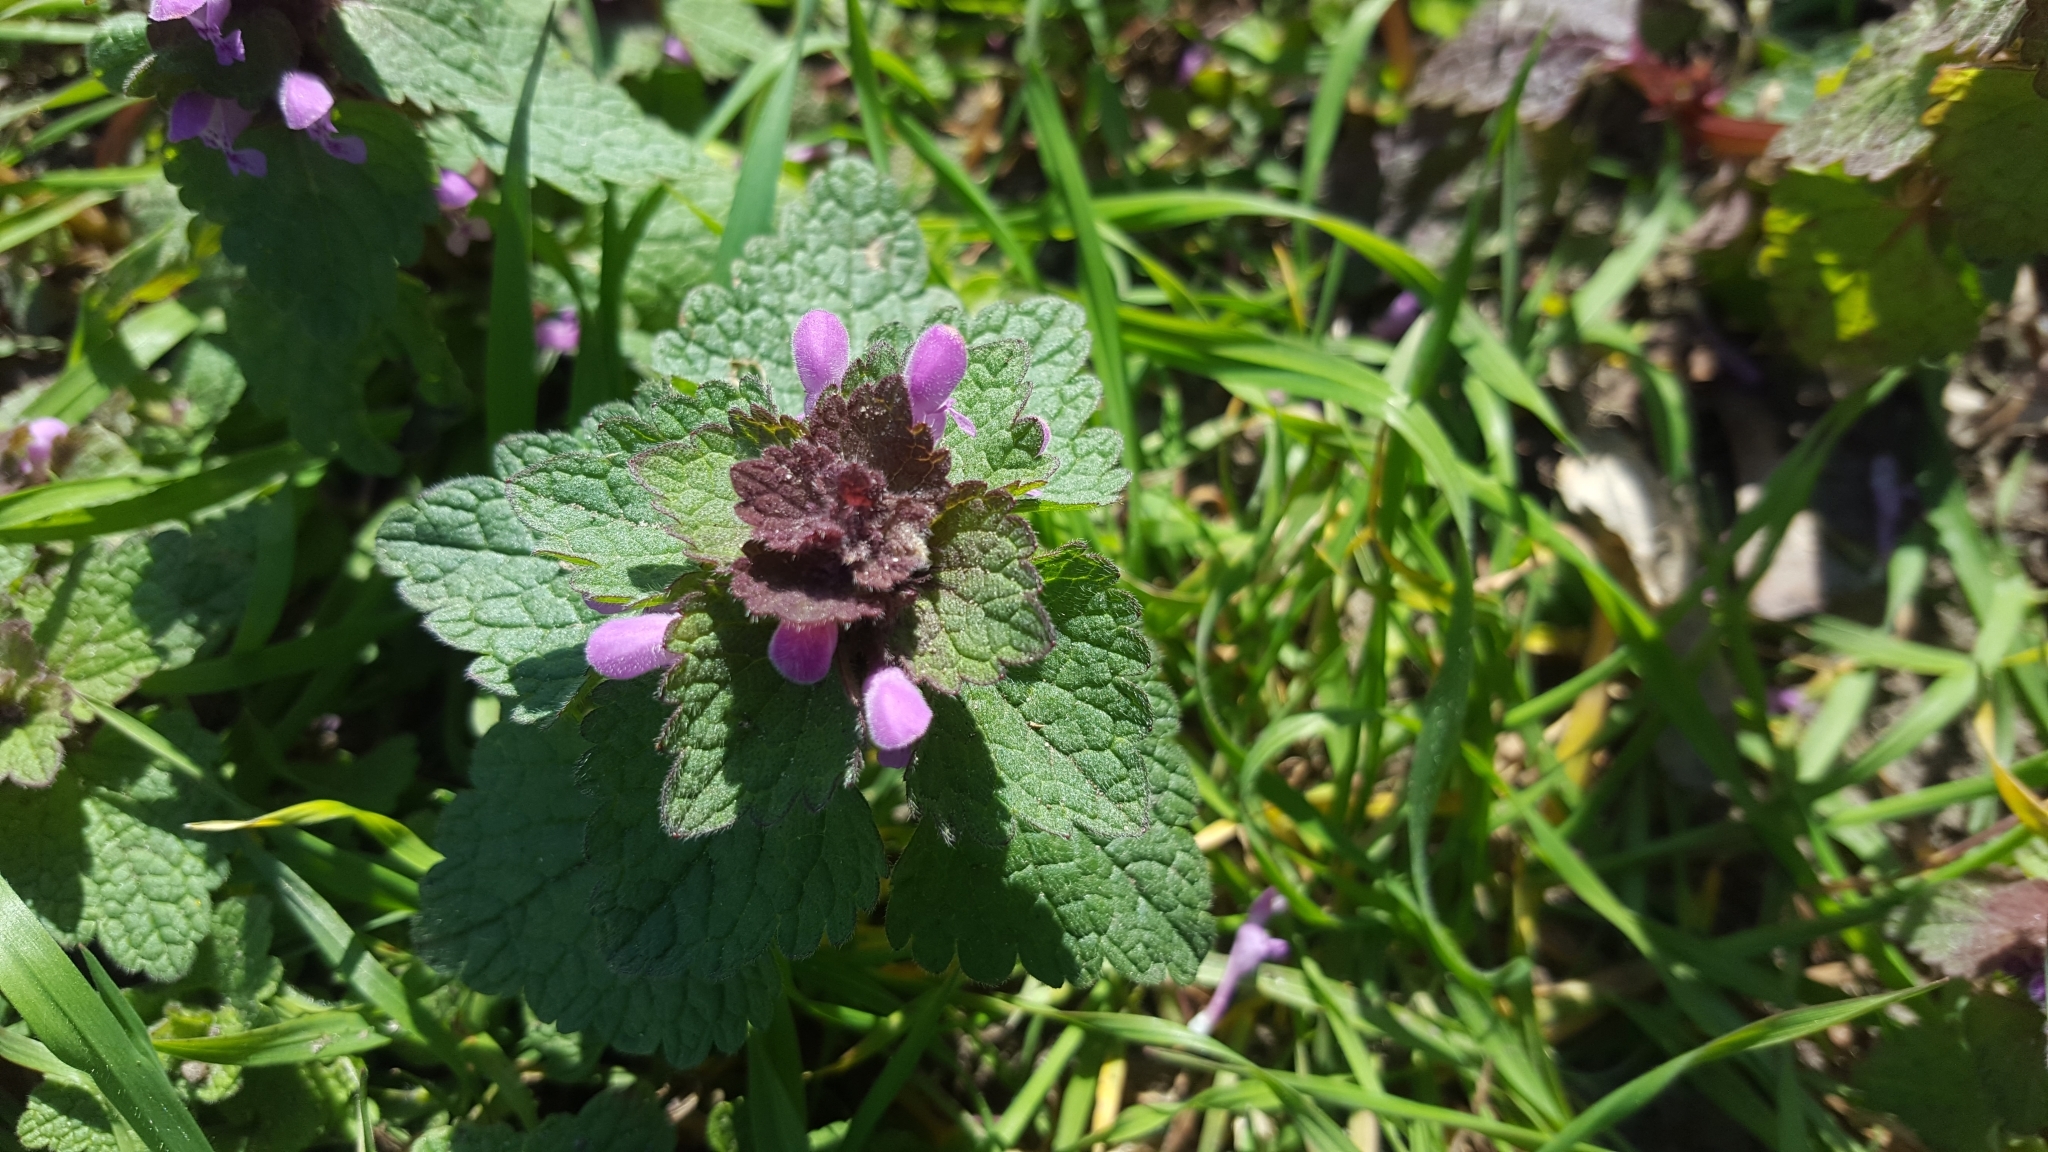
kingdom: Plantae
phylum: Tracheophyta
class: Magnoliopsida
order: Lamiales
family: Lamiaceae
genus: Lamium
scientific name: Lamium purpureum
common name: Red dead-nettle
